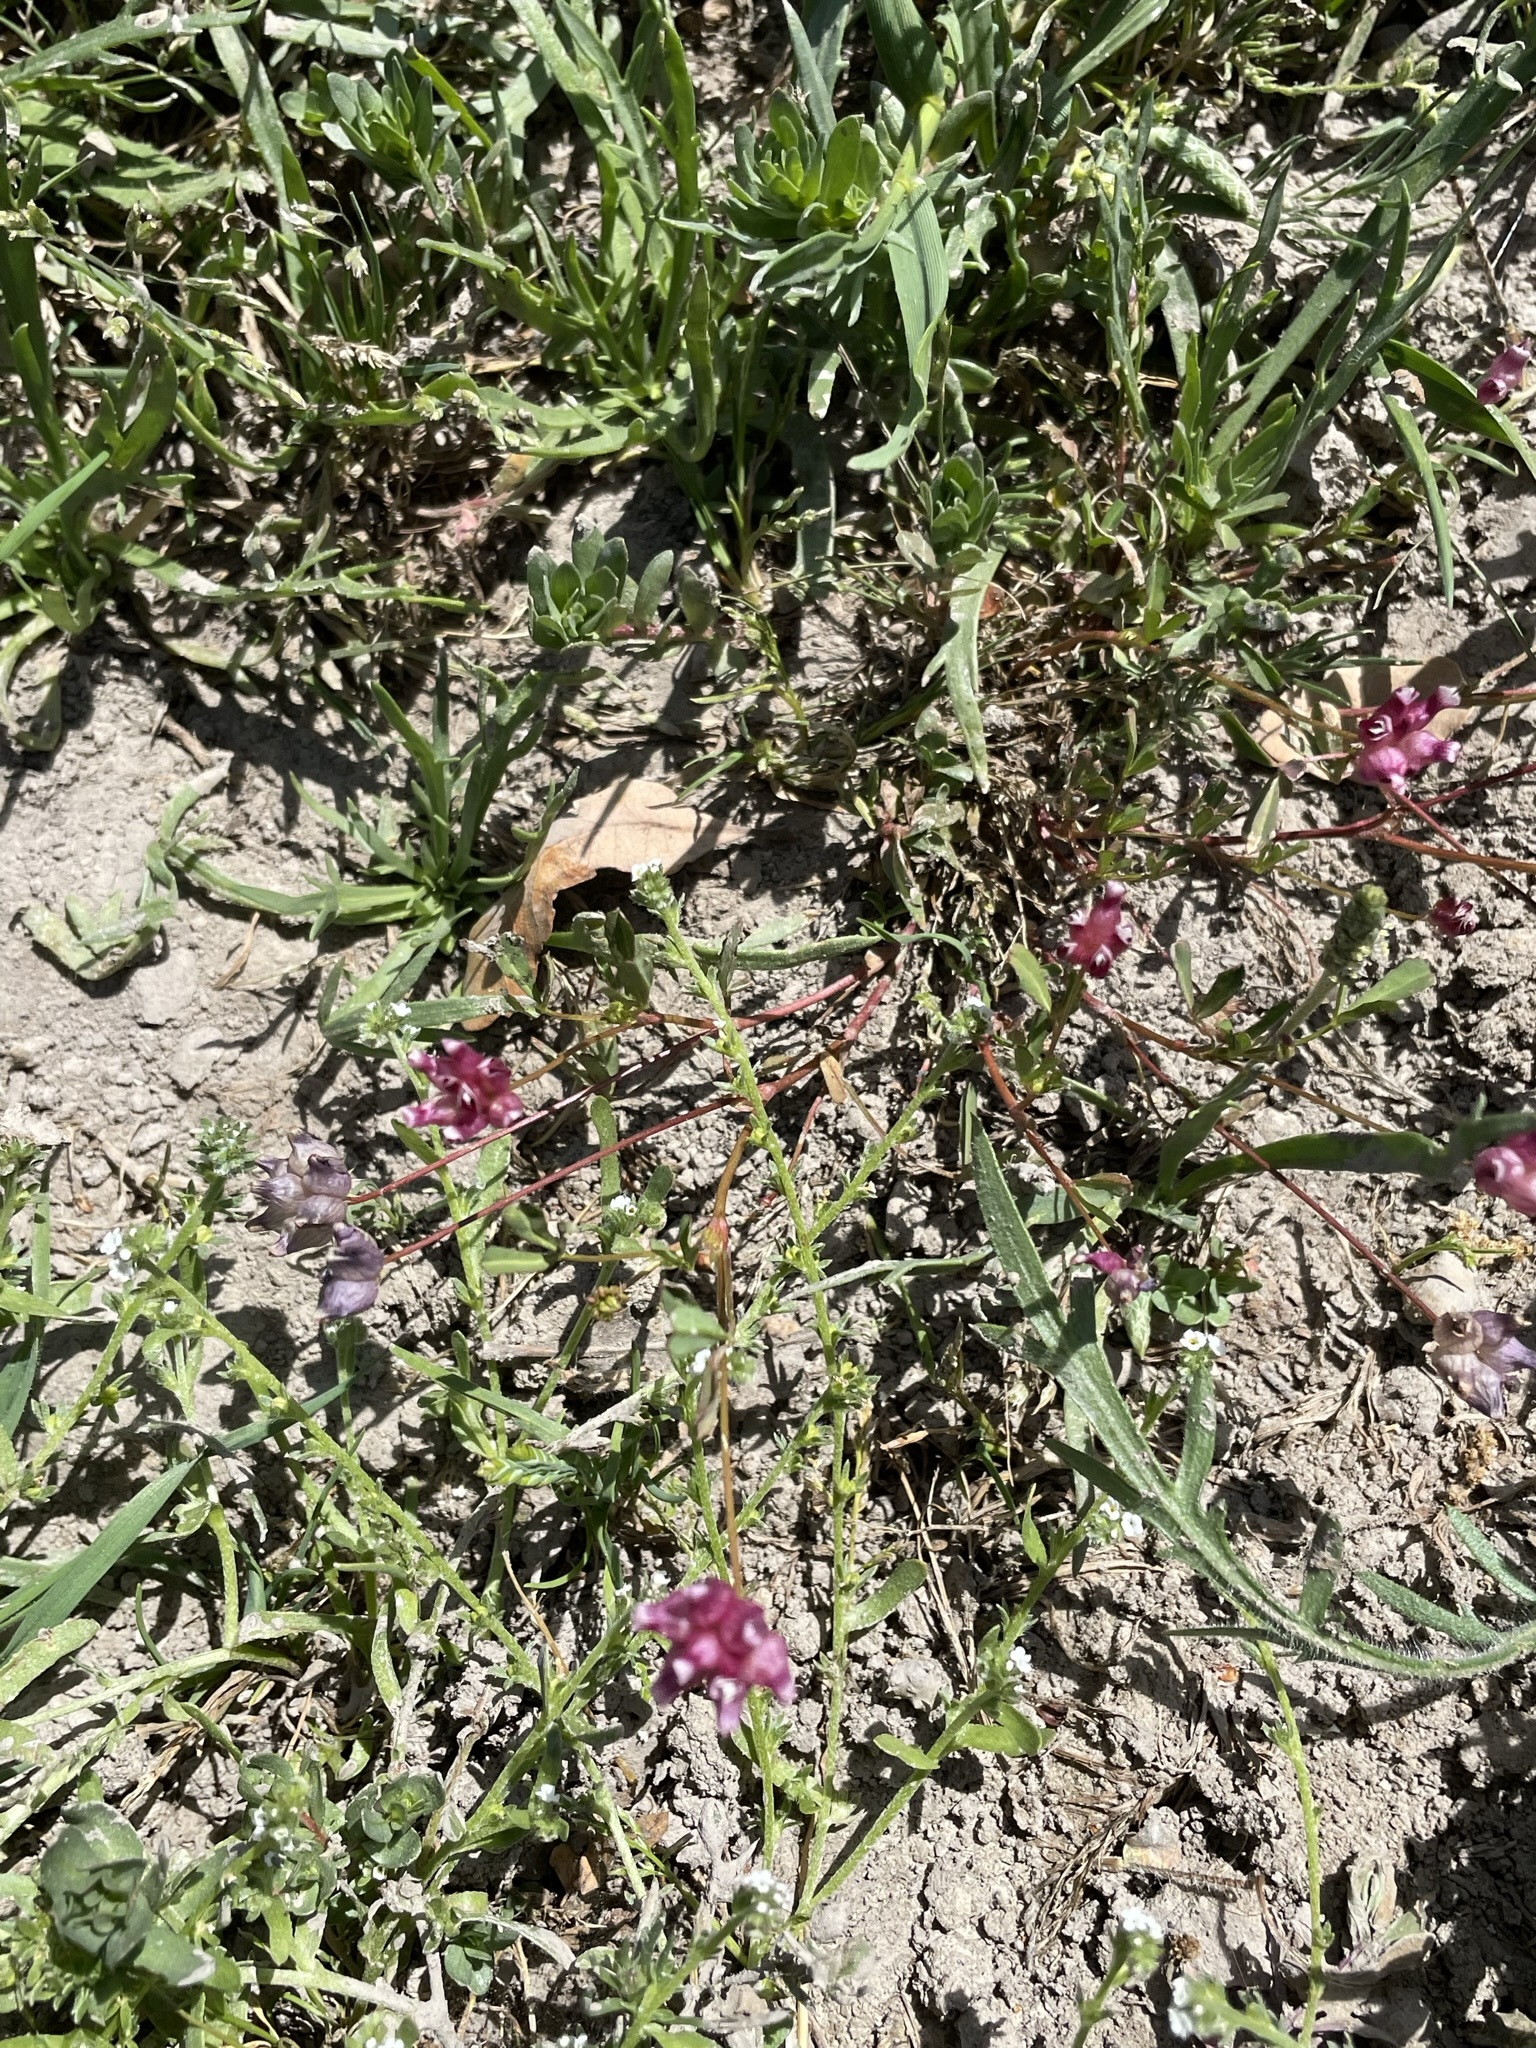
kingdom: Plantae
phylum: Tracheophyta
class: Magnoliopsida
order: Fabales
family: Fabaceae
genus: Trifolium
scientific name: Trifolium depauperatum
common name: Poverty clover
